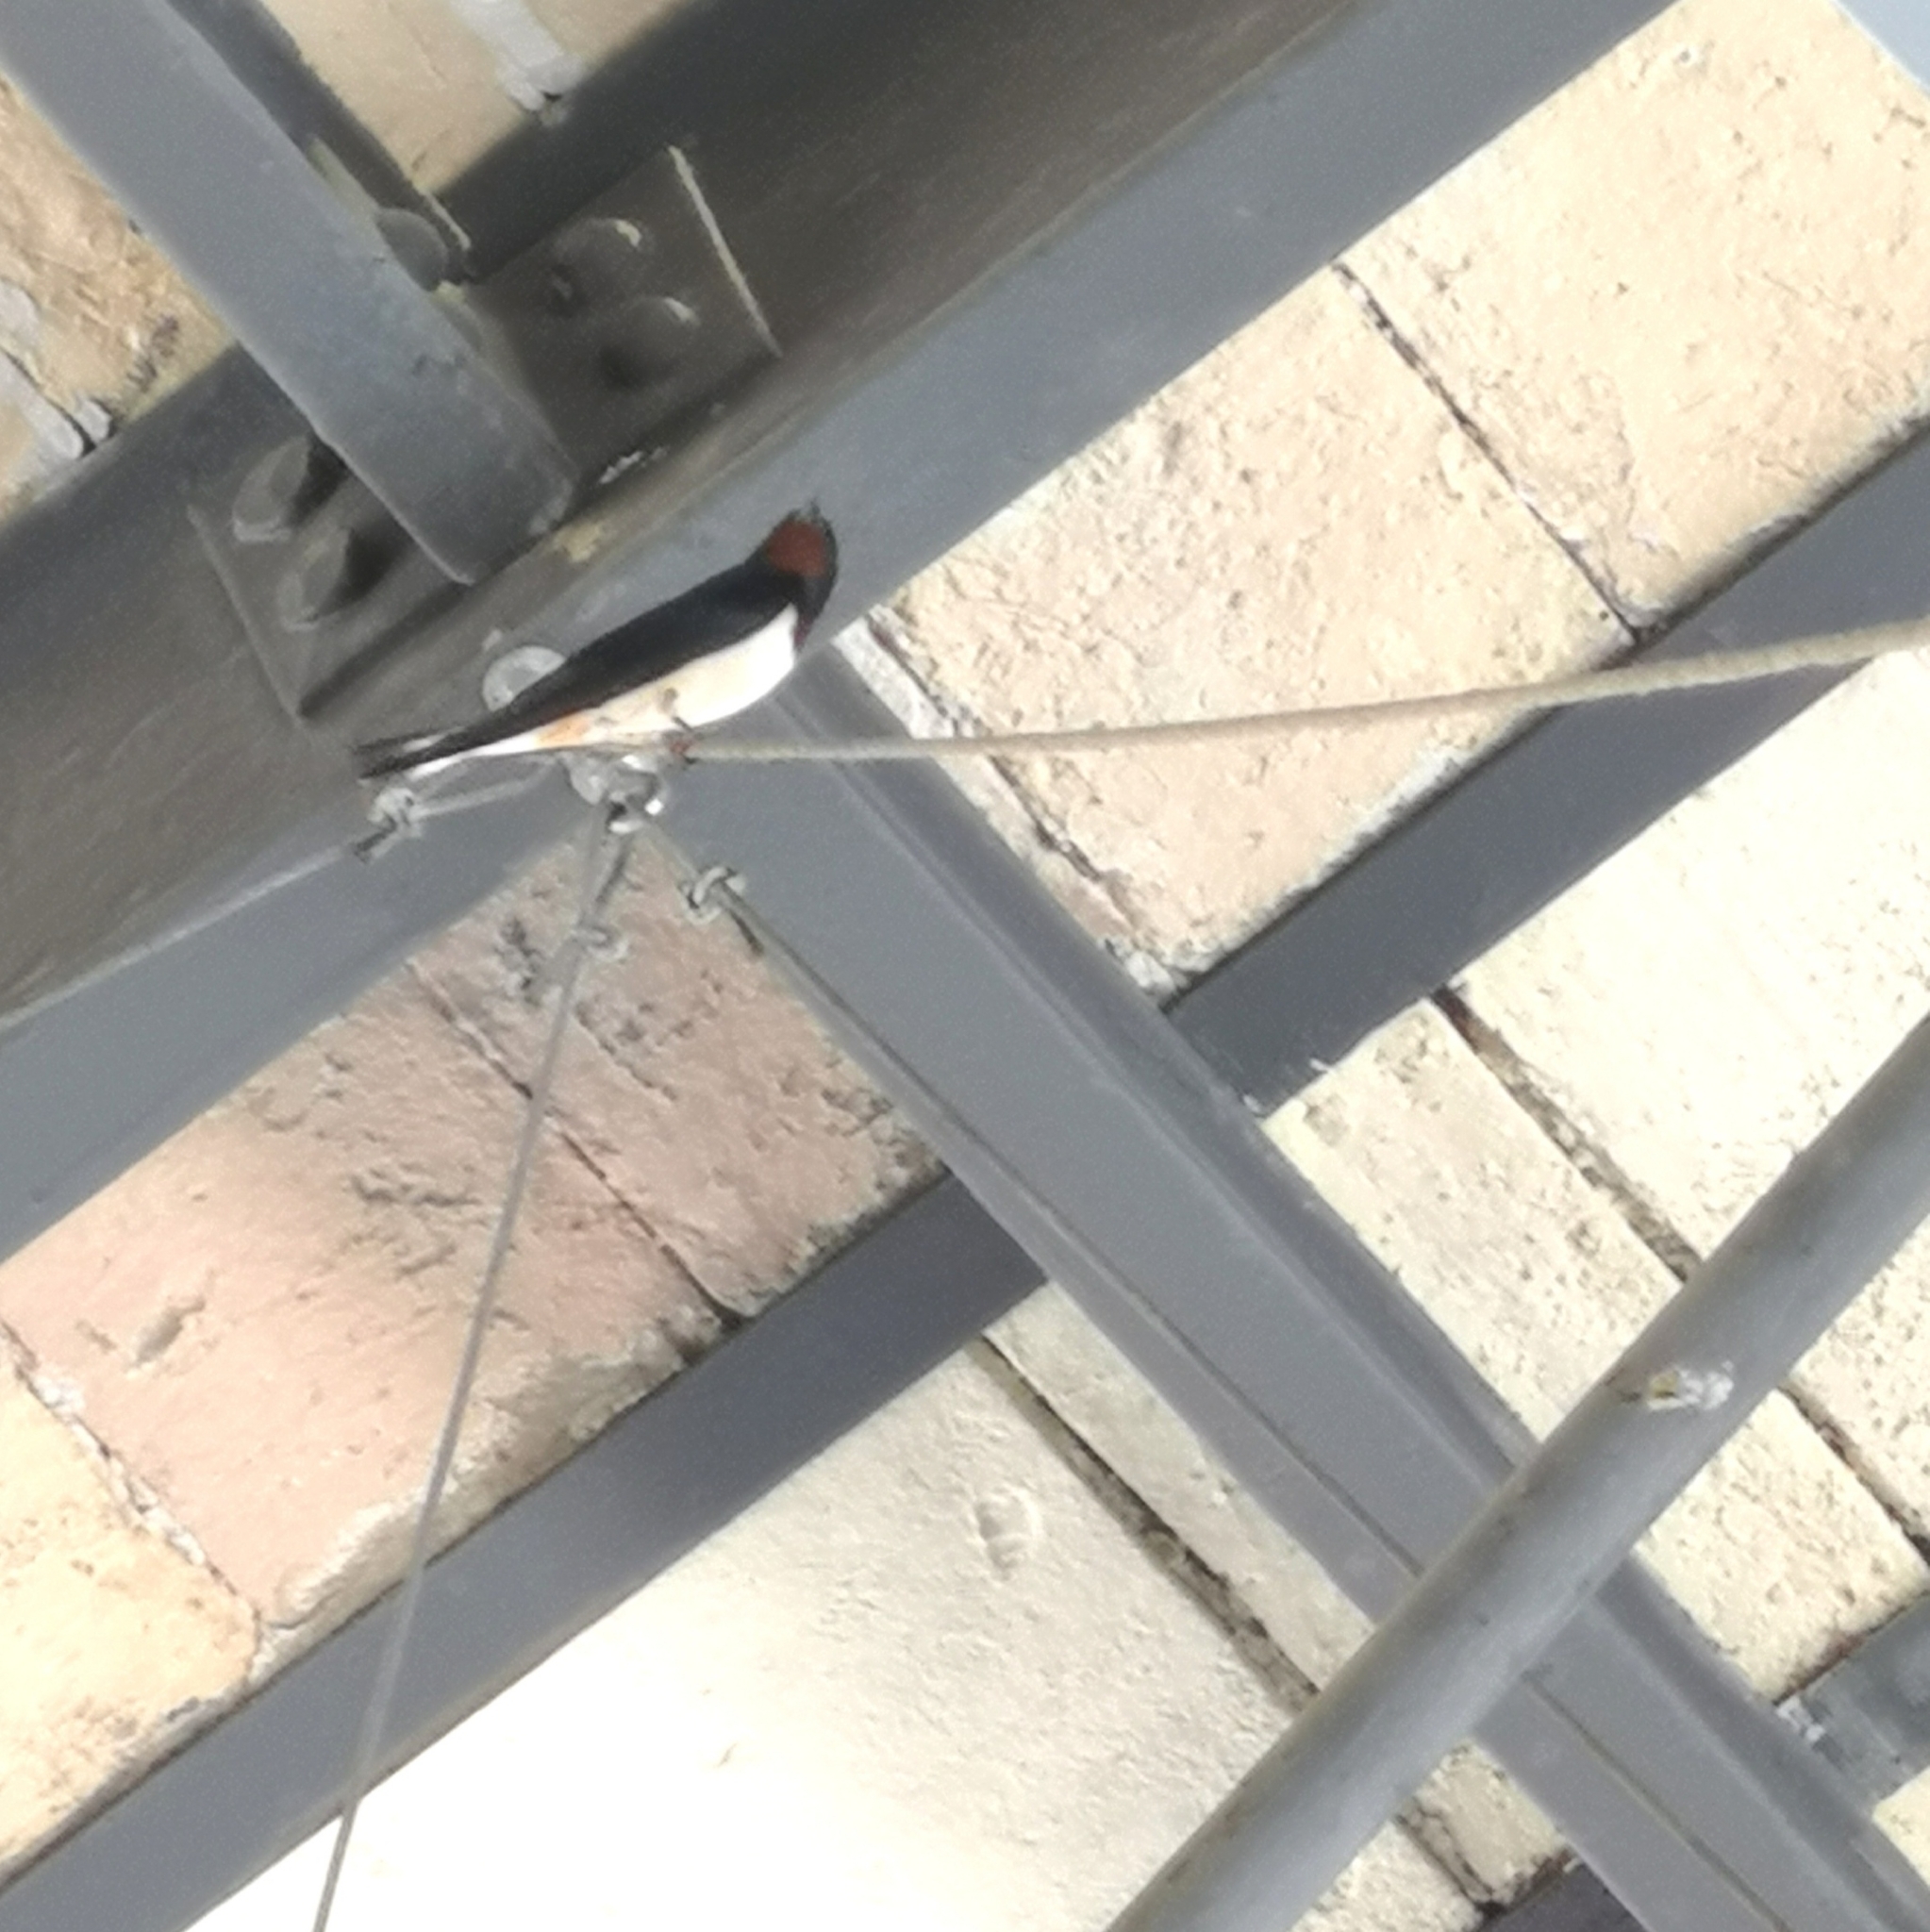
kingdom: Animalia
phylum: Chordata
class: Aves
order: Passeriformes
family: Hirundinidae
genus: Hirundo
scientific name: Hirundo rustica
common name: Barn swallow
